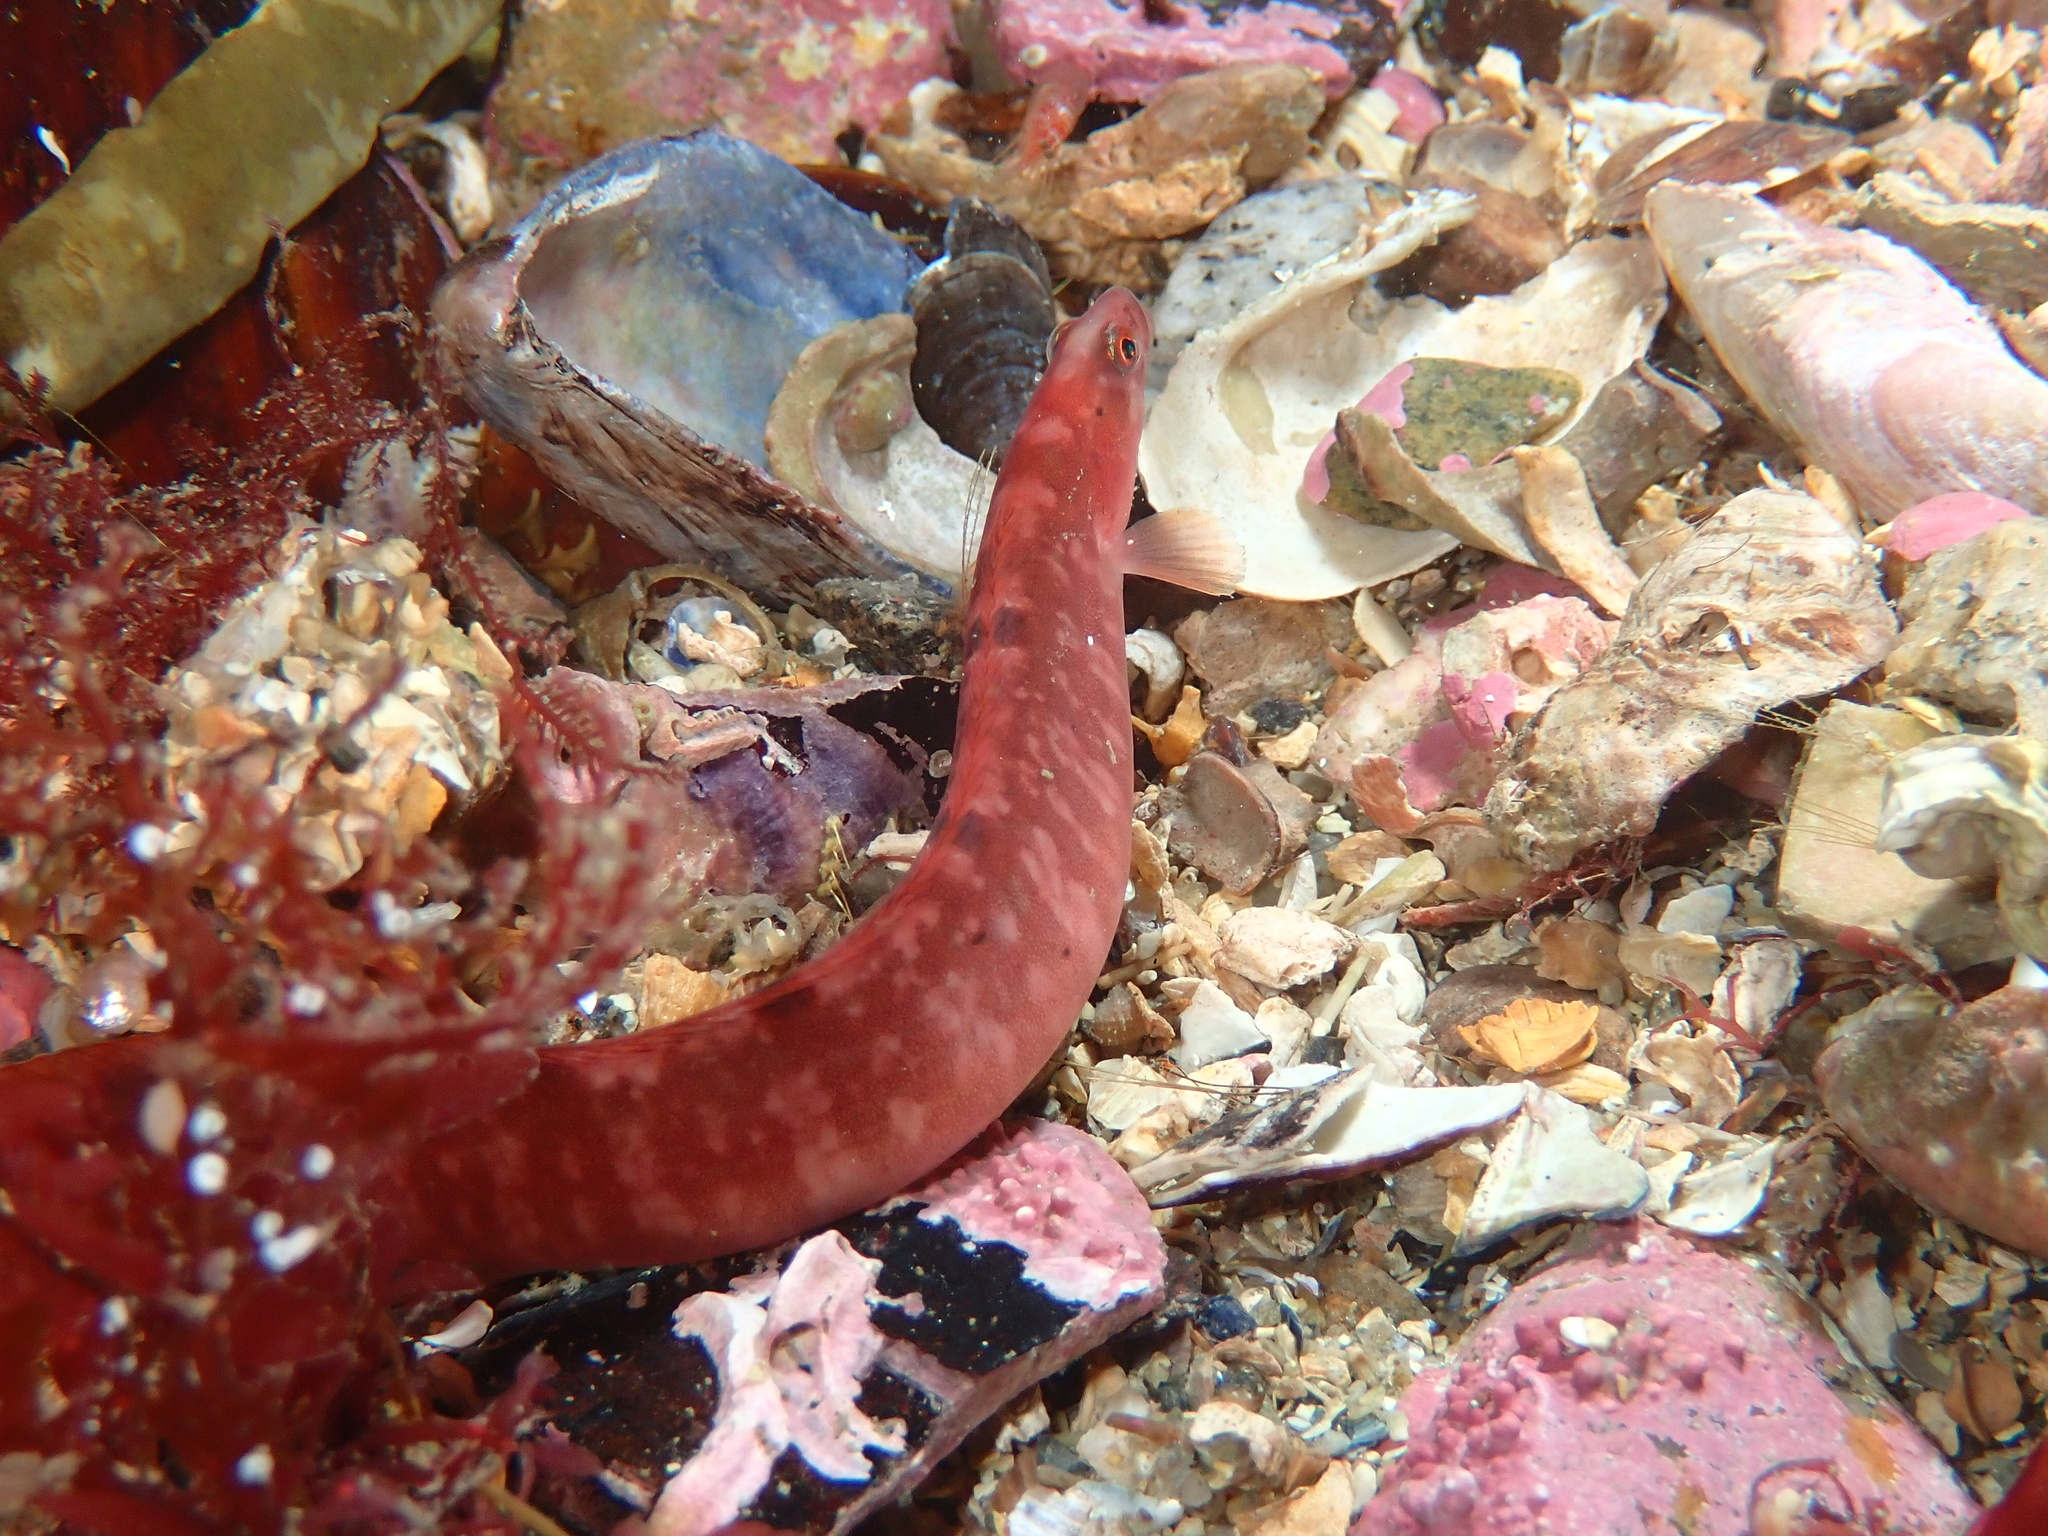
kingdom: Animalia
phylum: Chordata
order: Perciformes
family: Pholidae
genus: Pholis
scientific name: Pholis gunnellus
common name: Butterfish
